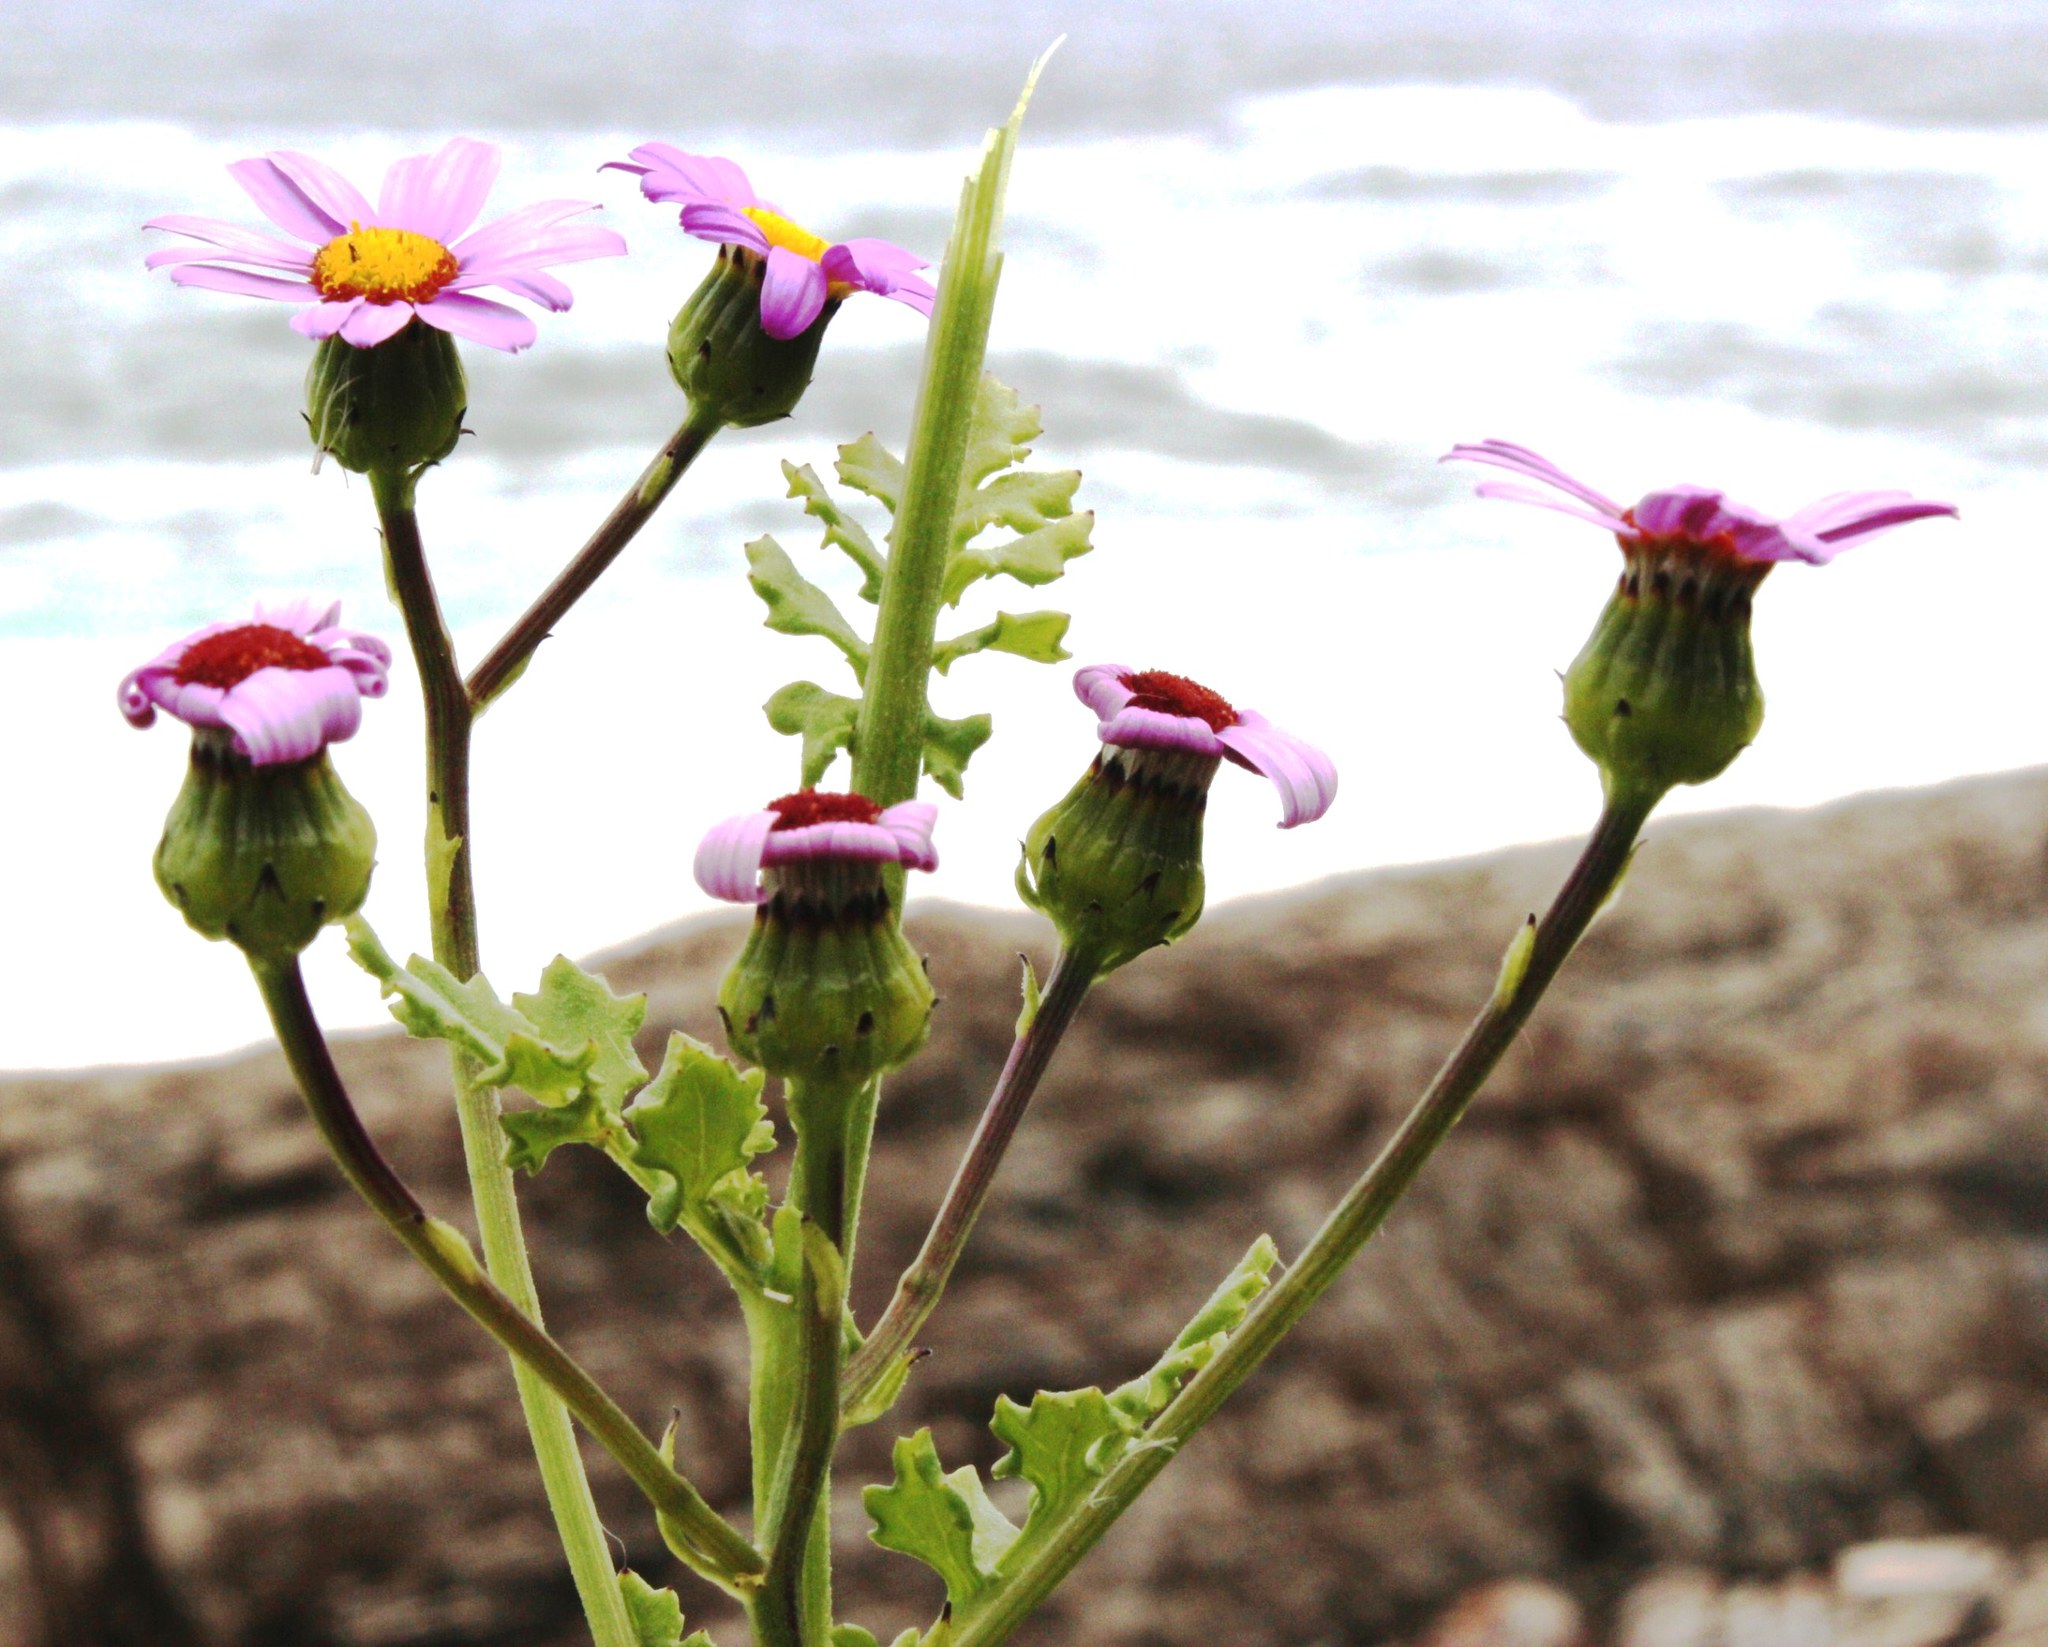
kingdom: Plantae
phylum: Tracheophyta
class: Magnoliopsida
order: Asterales
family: Asteraceae
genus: Senecio
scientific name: Senecio elegans
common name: Purple groundsel
